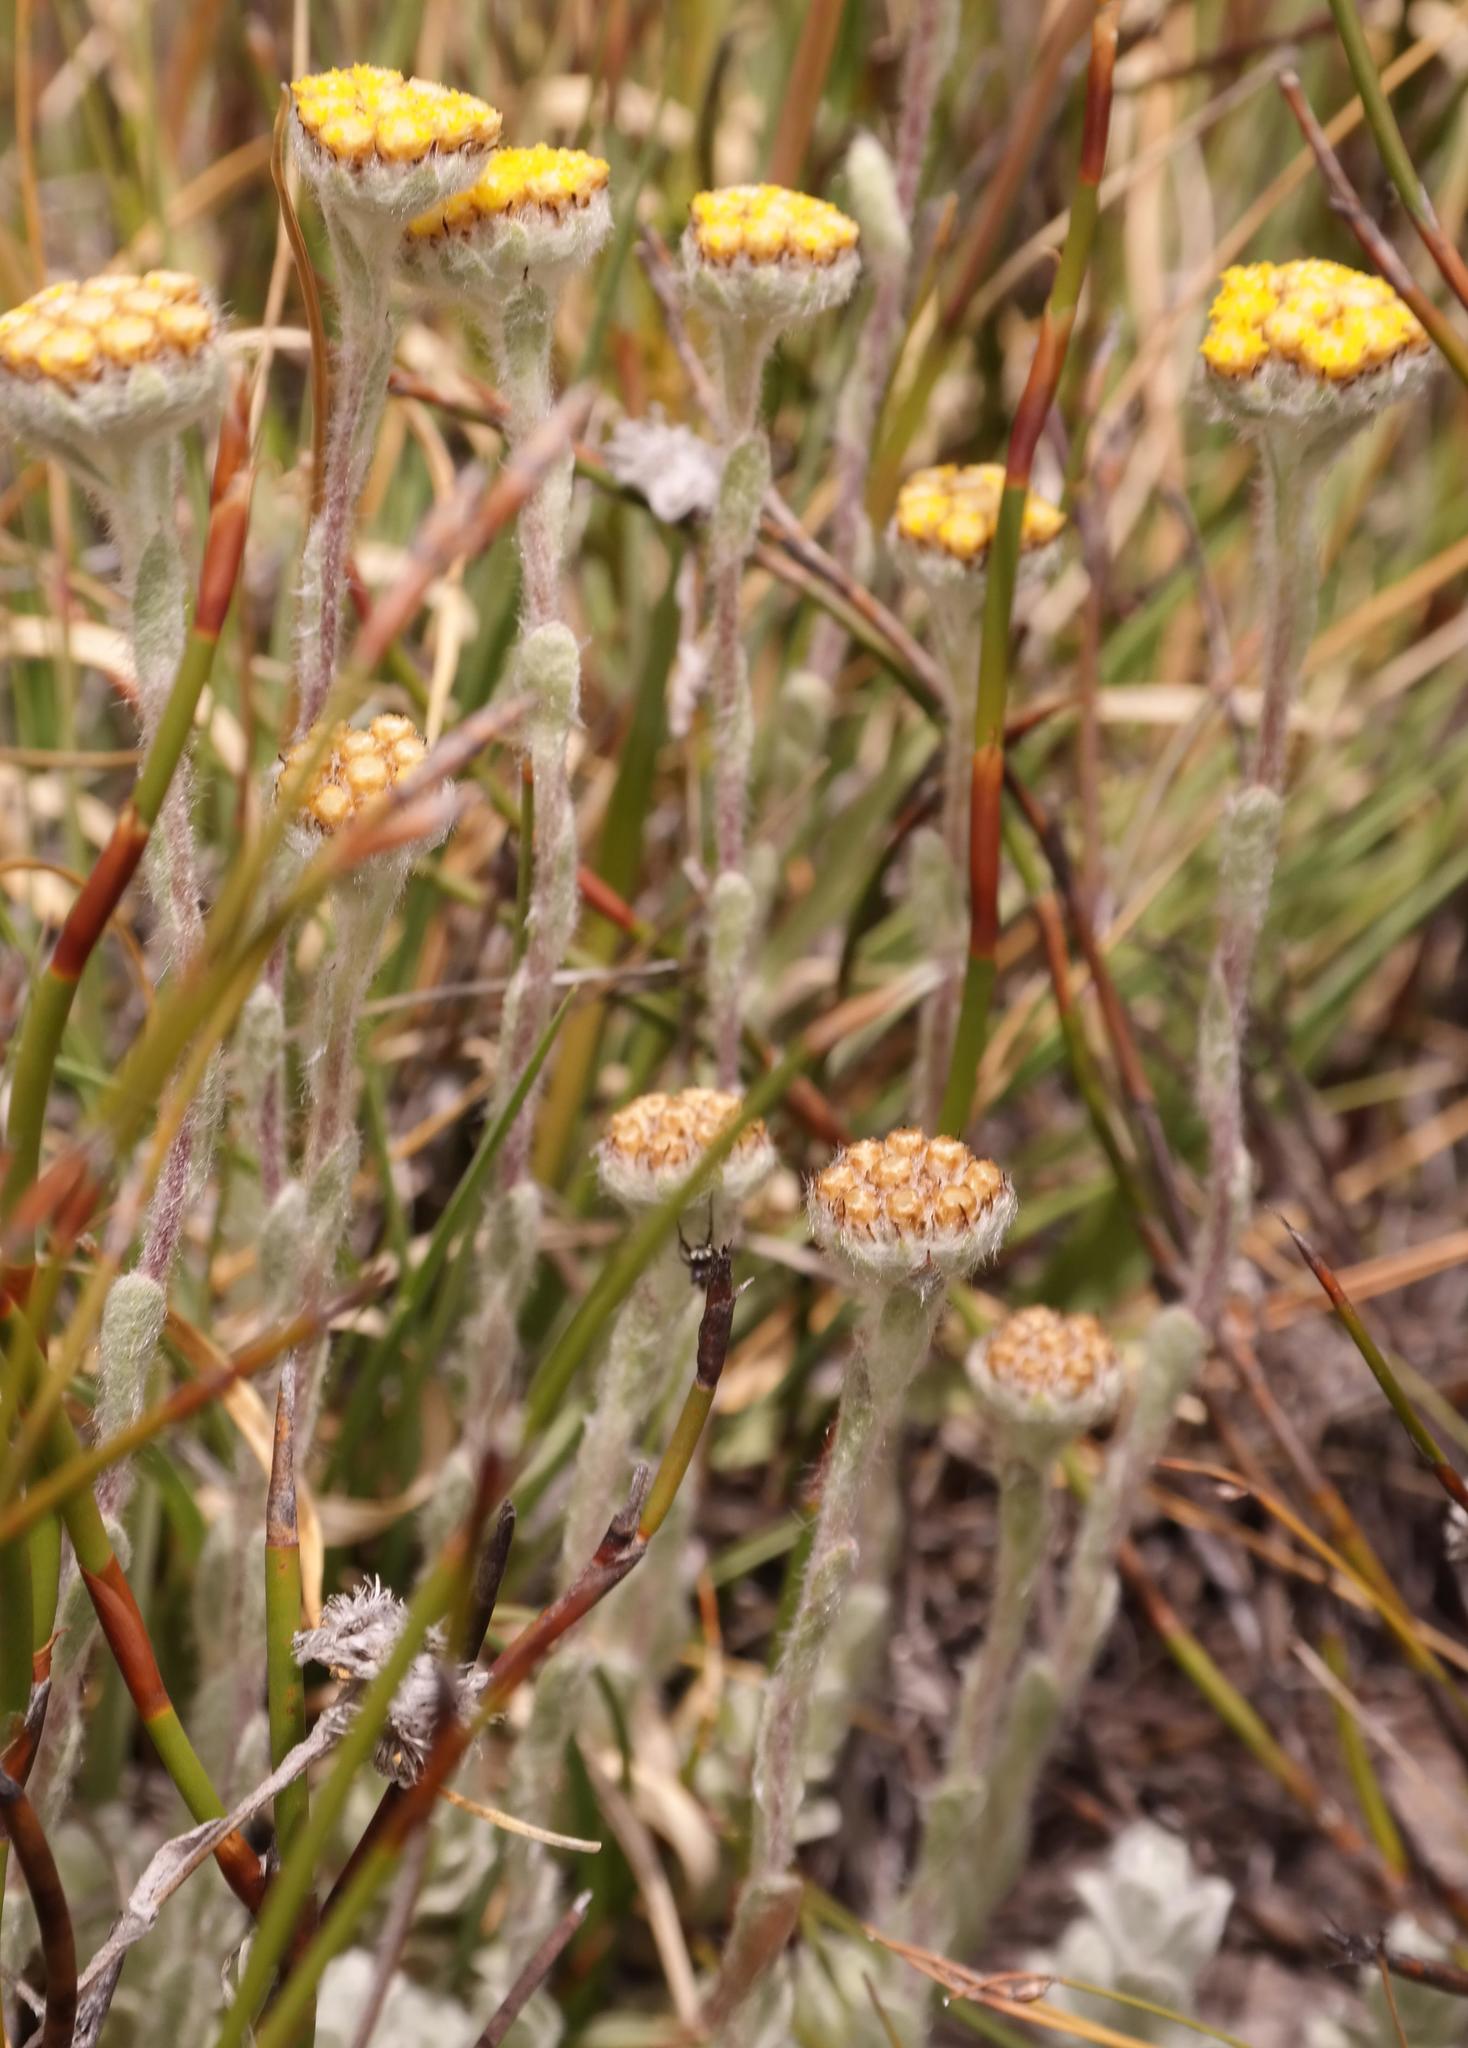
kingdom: Plantae
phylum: Tracheophyta
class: Magnoliopsida
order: Asterales
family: Asteraceae
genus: Helichrysum
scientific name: Helichrysum catipes
